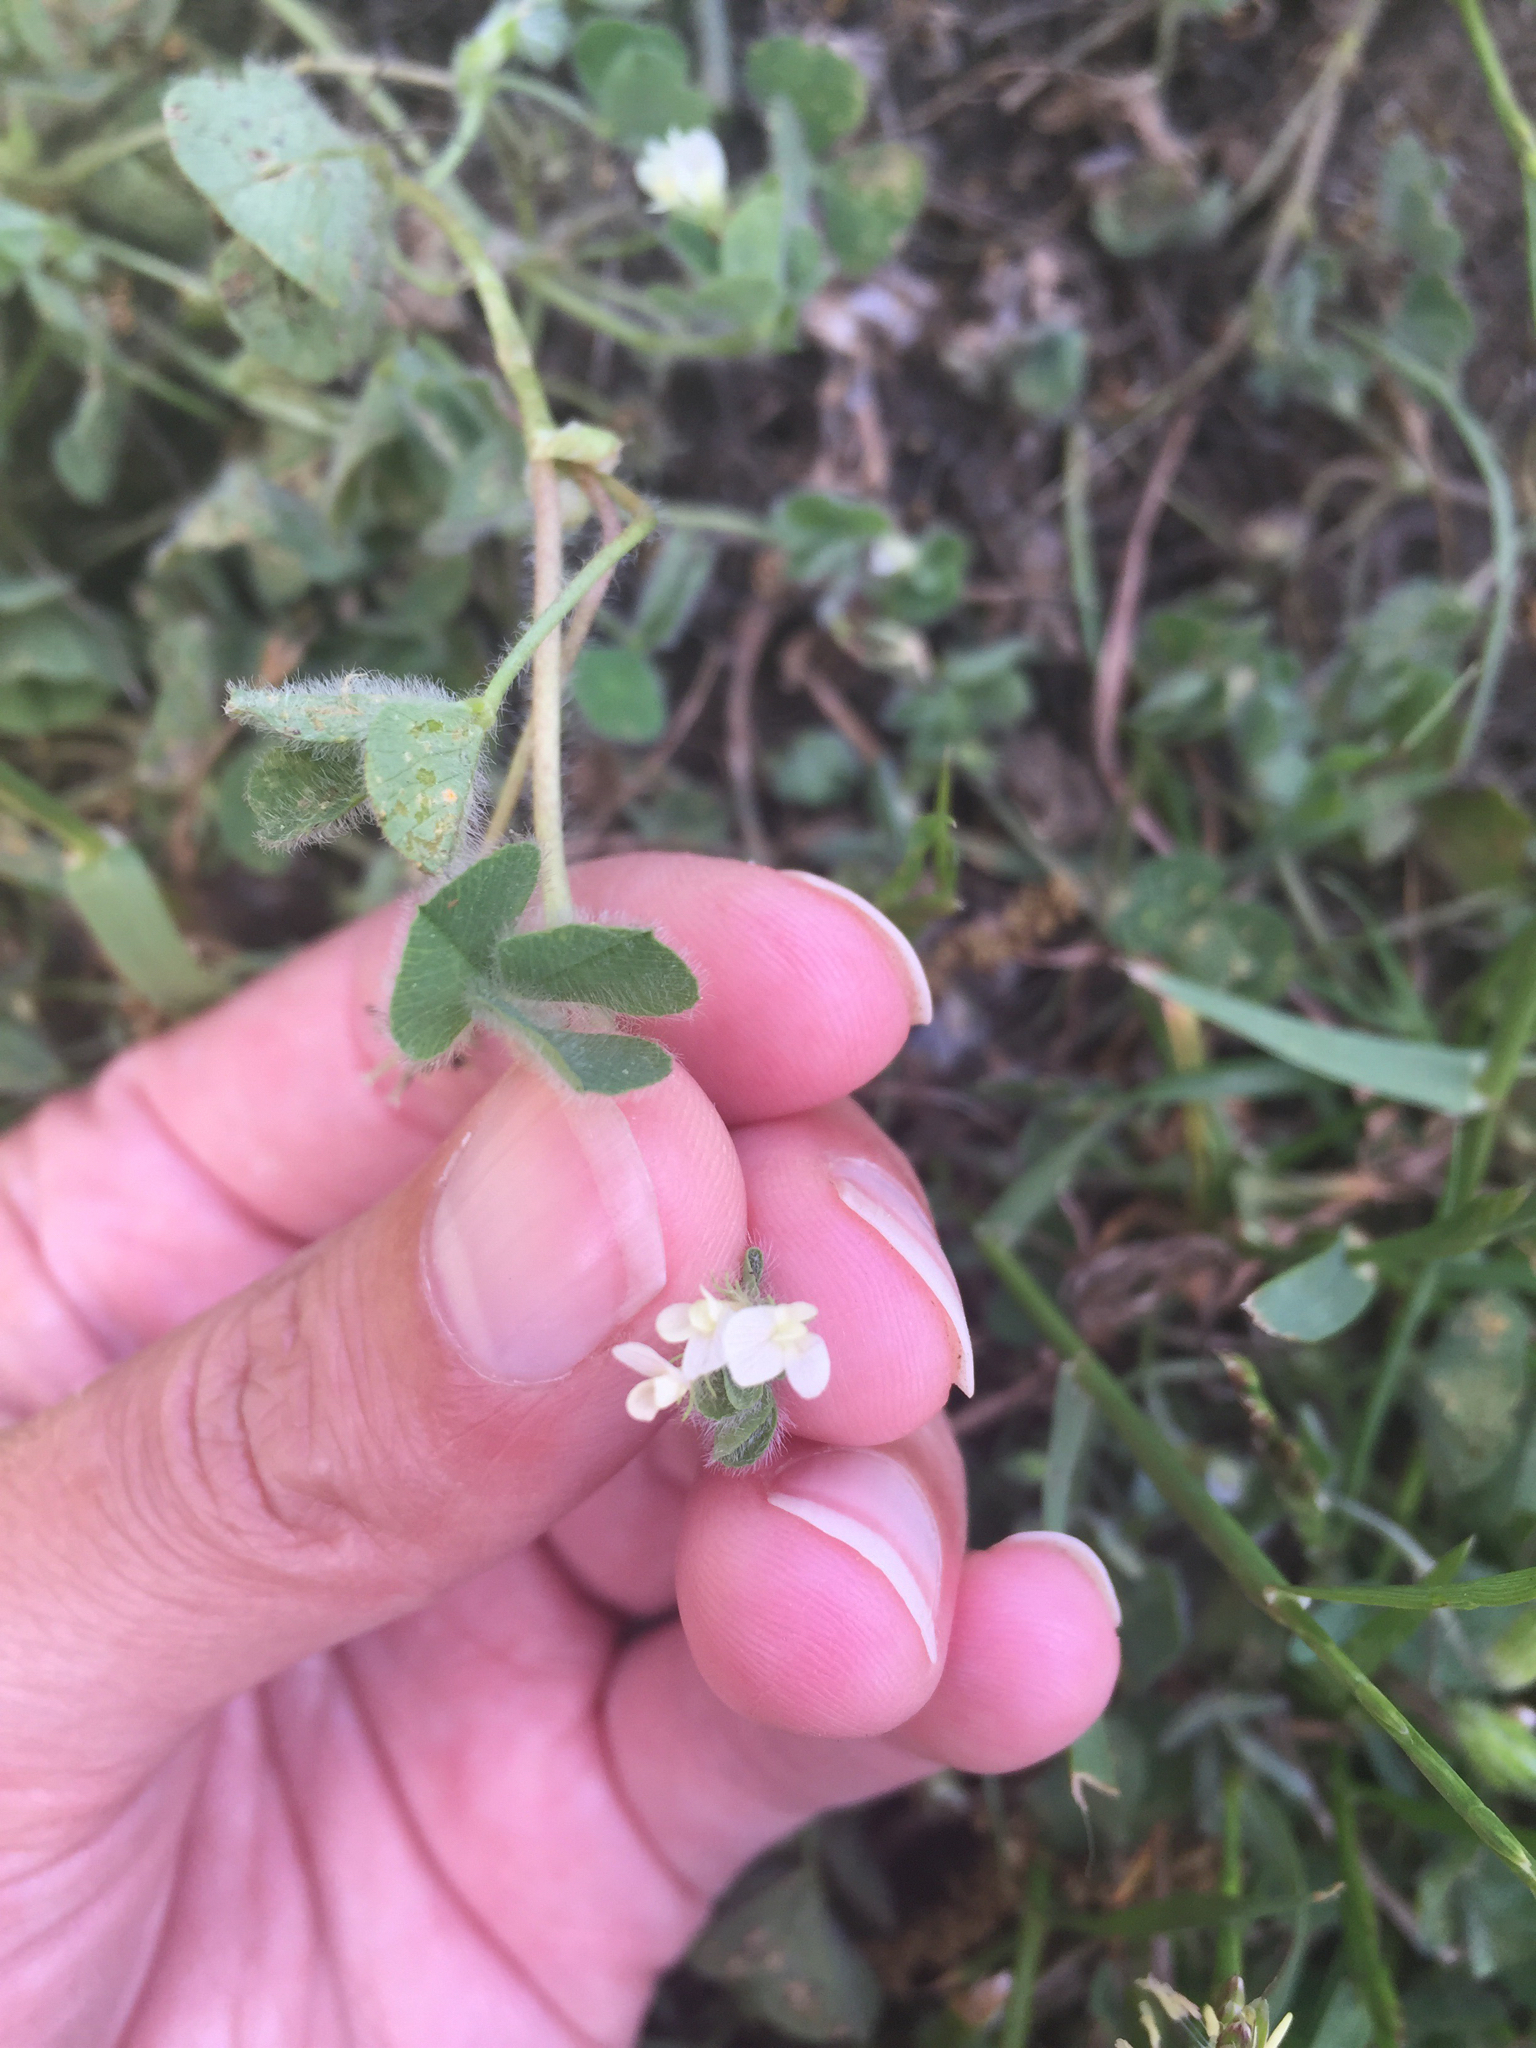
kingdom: Plantae
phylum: Tracheophyta
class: Magnoliopsida
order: Fabales
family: Fabaceae
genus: Trifolium
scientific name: Trifolium subterraneum
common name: Subterranean clover
